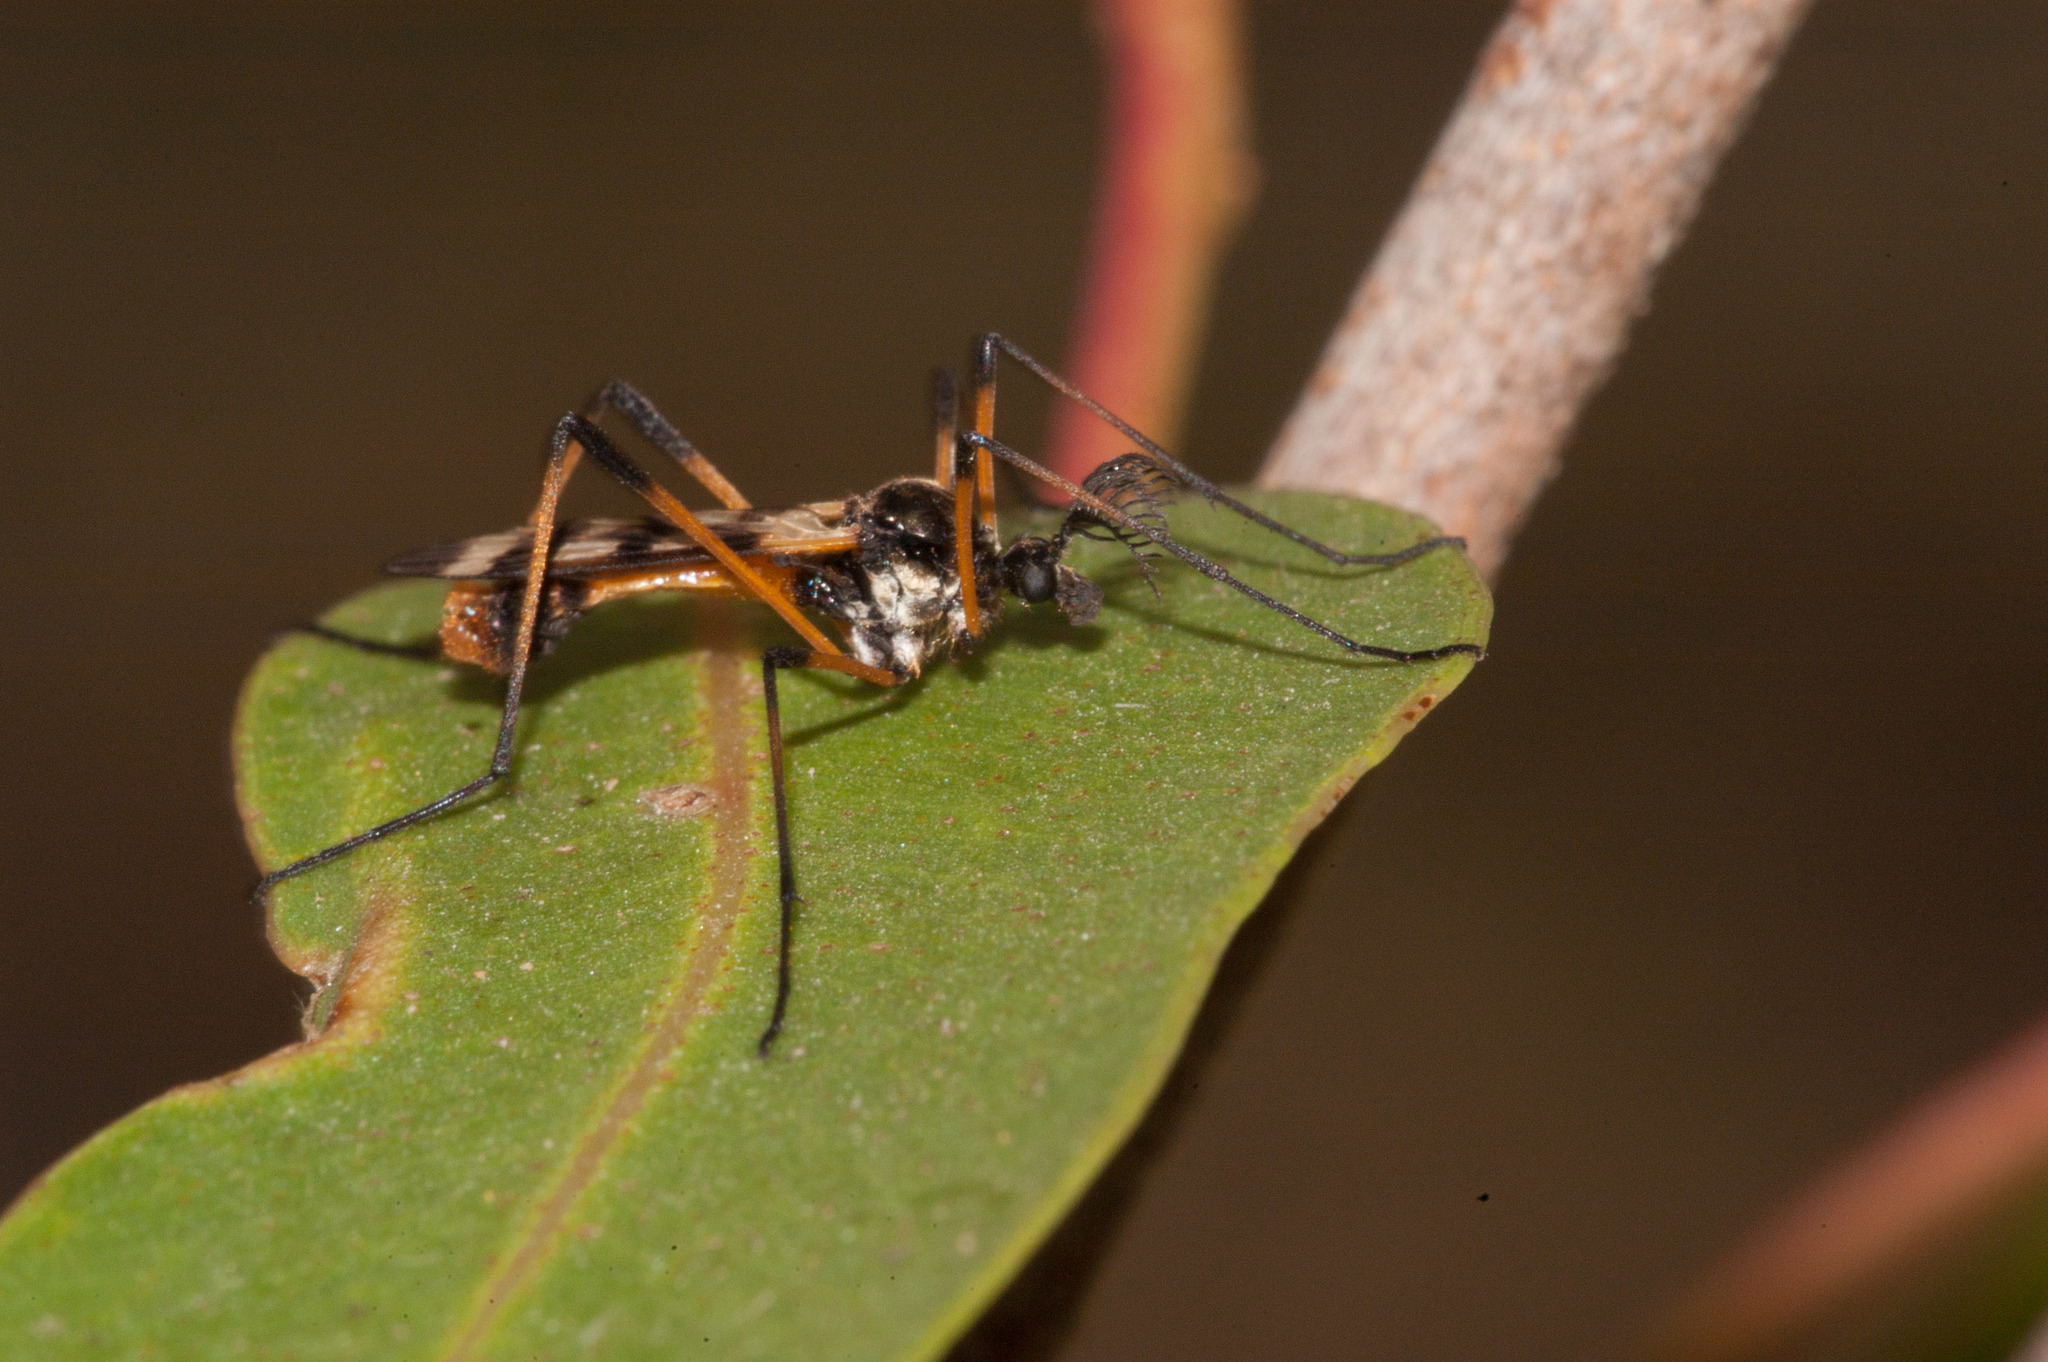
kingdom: Animalia
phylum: Arthropoda
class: Insecta
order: Diptera
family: Limoniidae
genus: Gynoplistia
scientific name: Gynoplistia bella
